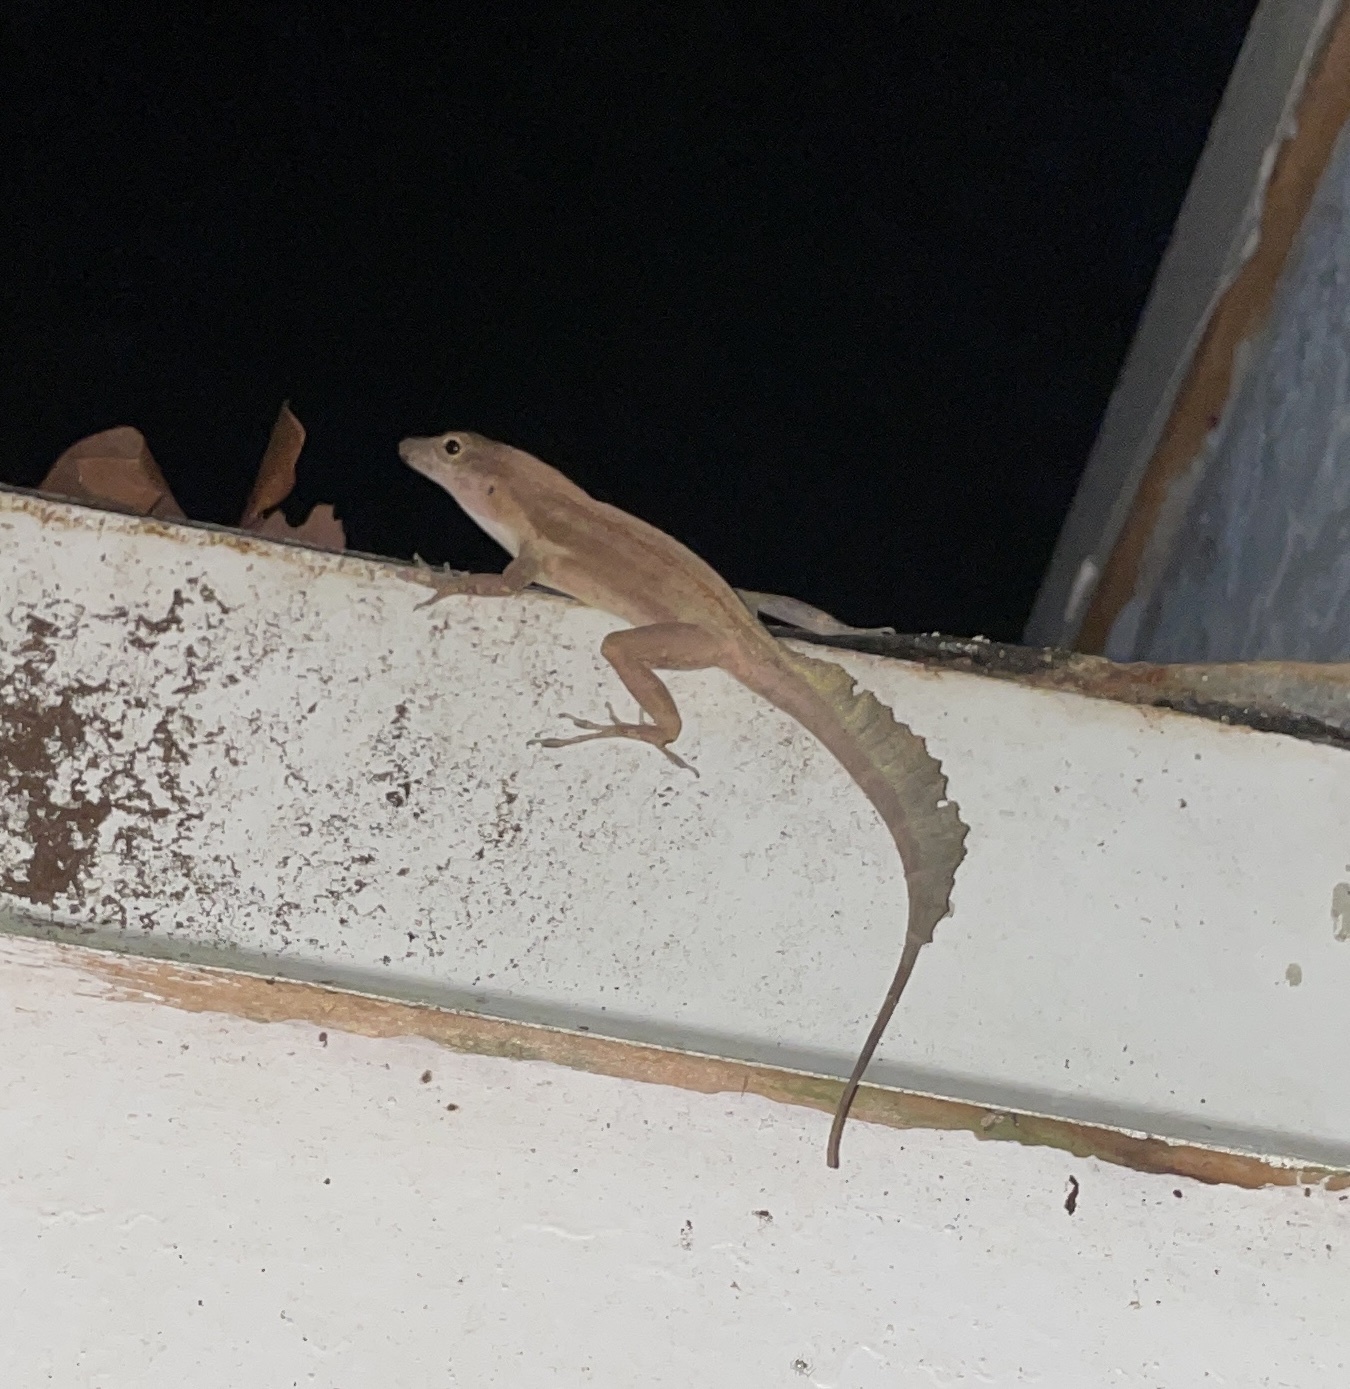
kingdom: Animalia
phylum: Chordata
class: Squamata
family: Dactyloidae
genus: Anolis
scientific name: Anolis cristatellus
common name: Crested anole
